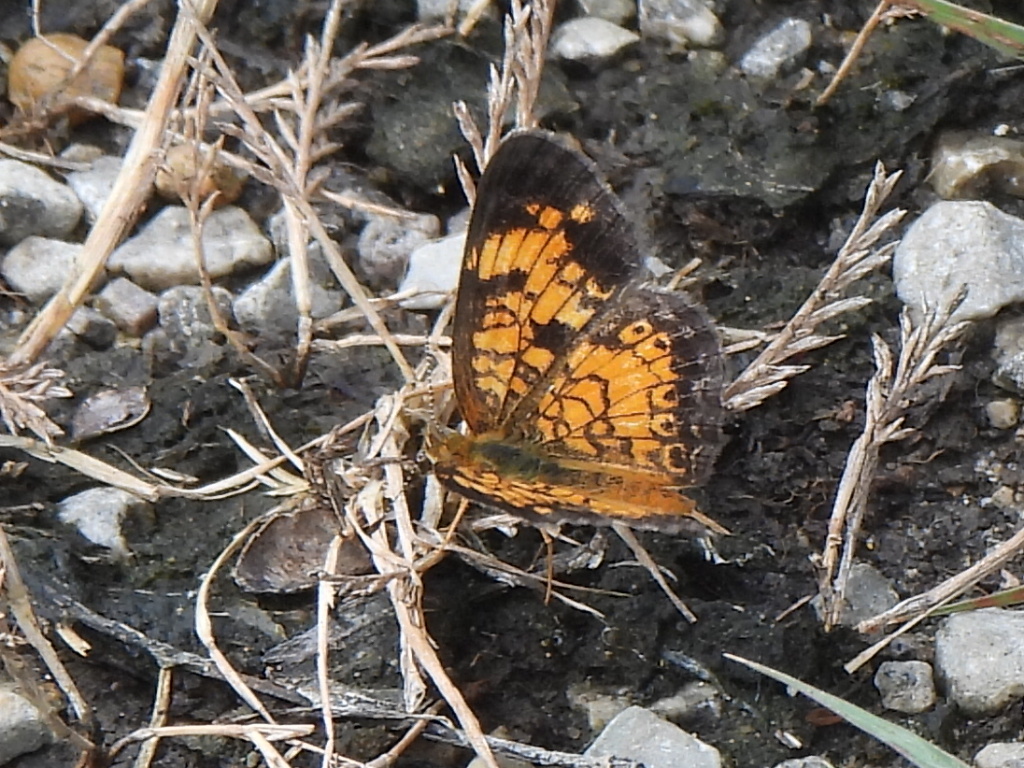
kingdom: Animalia
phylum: Arthropoda
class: Insecta
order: Lepidoptera
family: Nymphalidae
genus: Phyciodes
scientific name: Phyciodes tharos
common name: Pearl crescent
